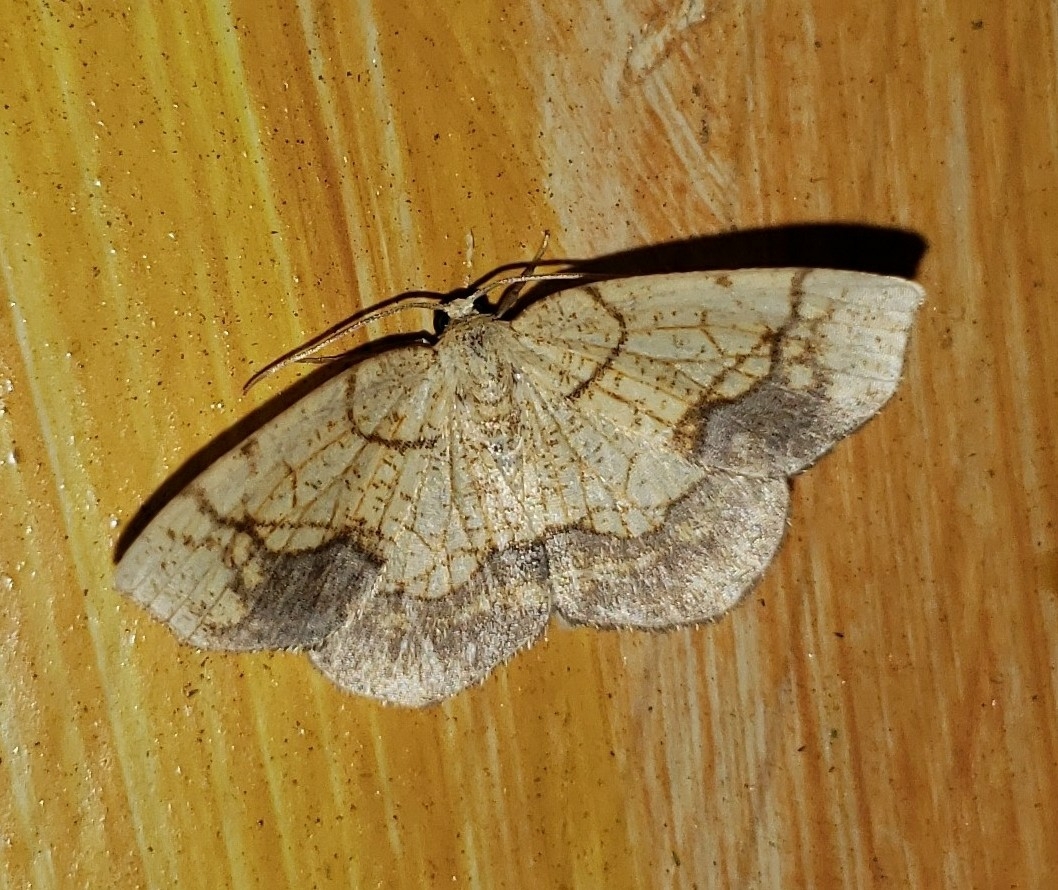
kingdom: Animalia
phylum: Arthropoda
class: Insecta
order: Lepidoptera
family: Geometridae
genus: Nematocampa
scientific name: Nematocampa resistaria
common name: Horned spanworm moth
